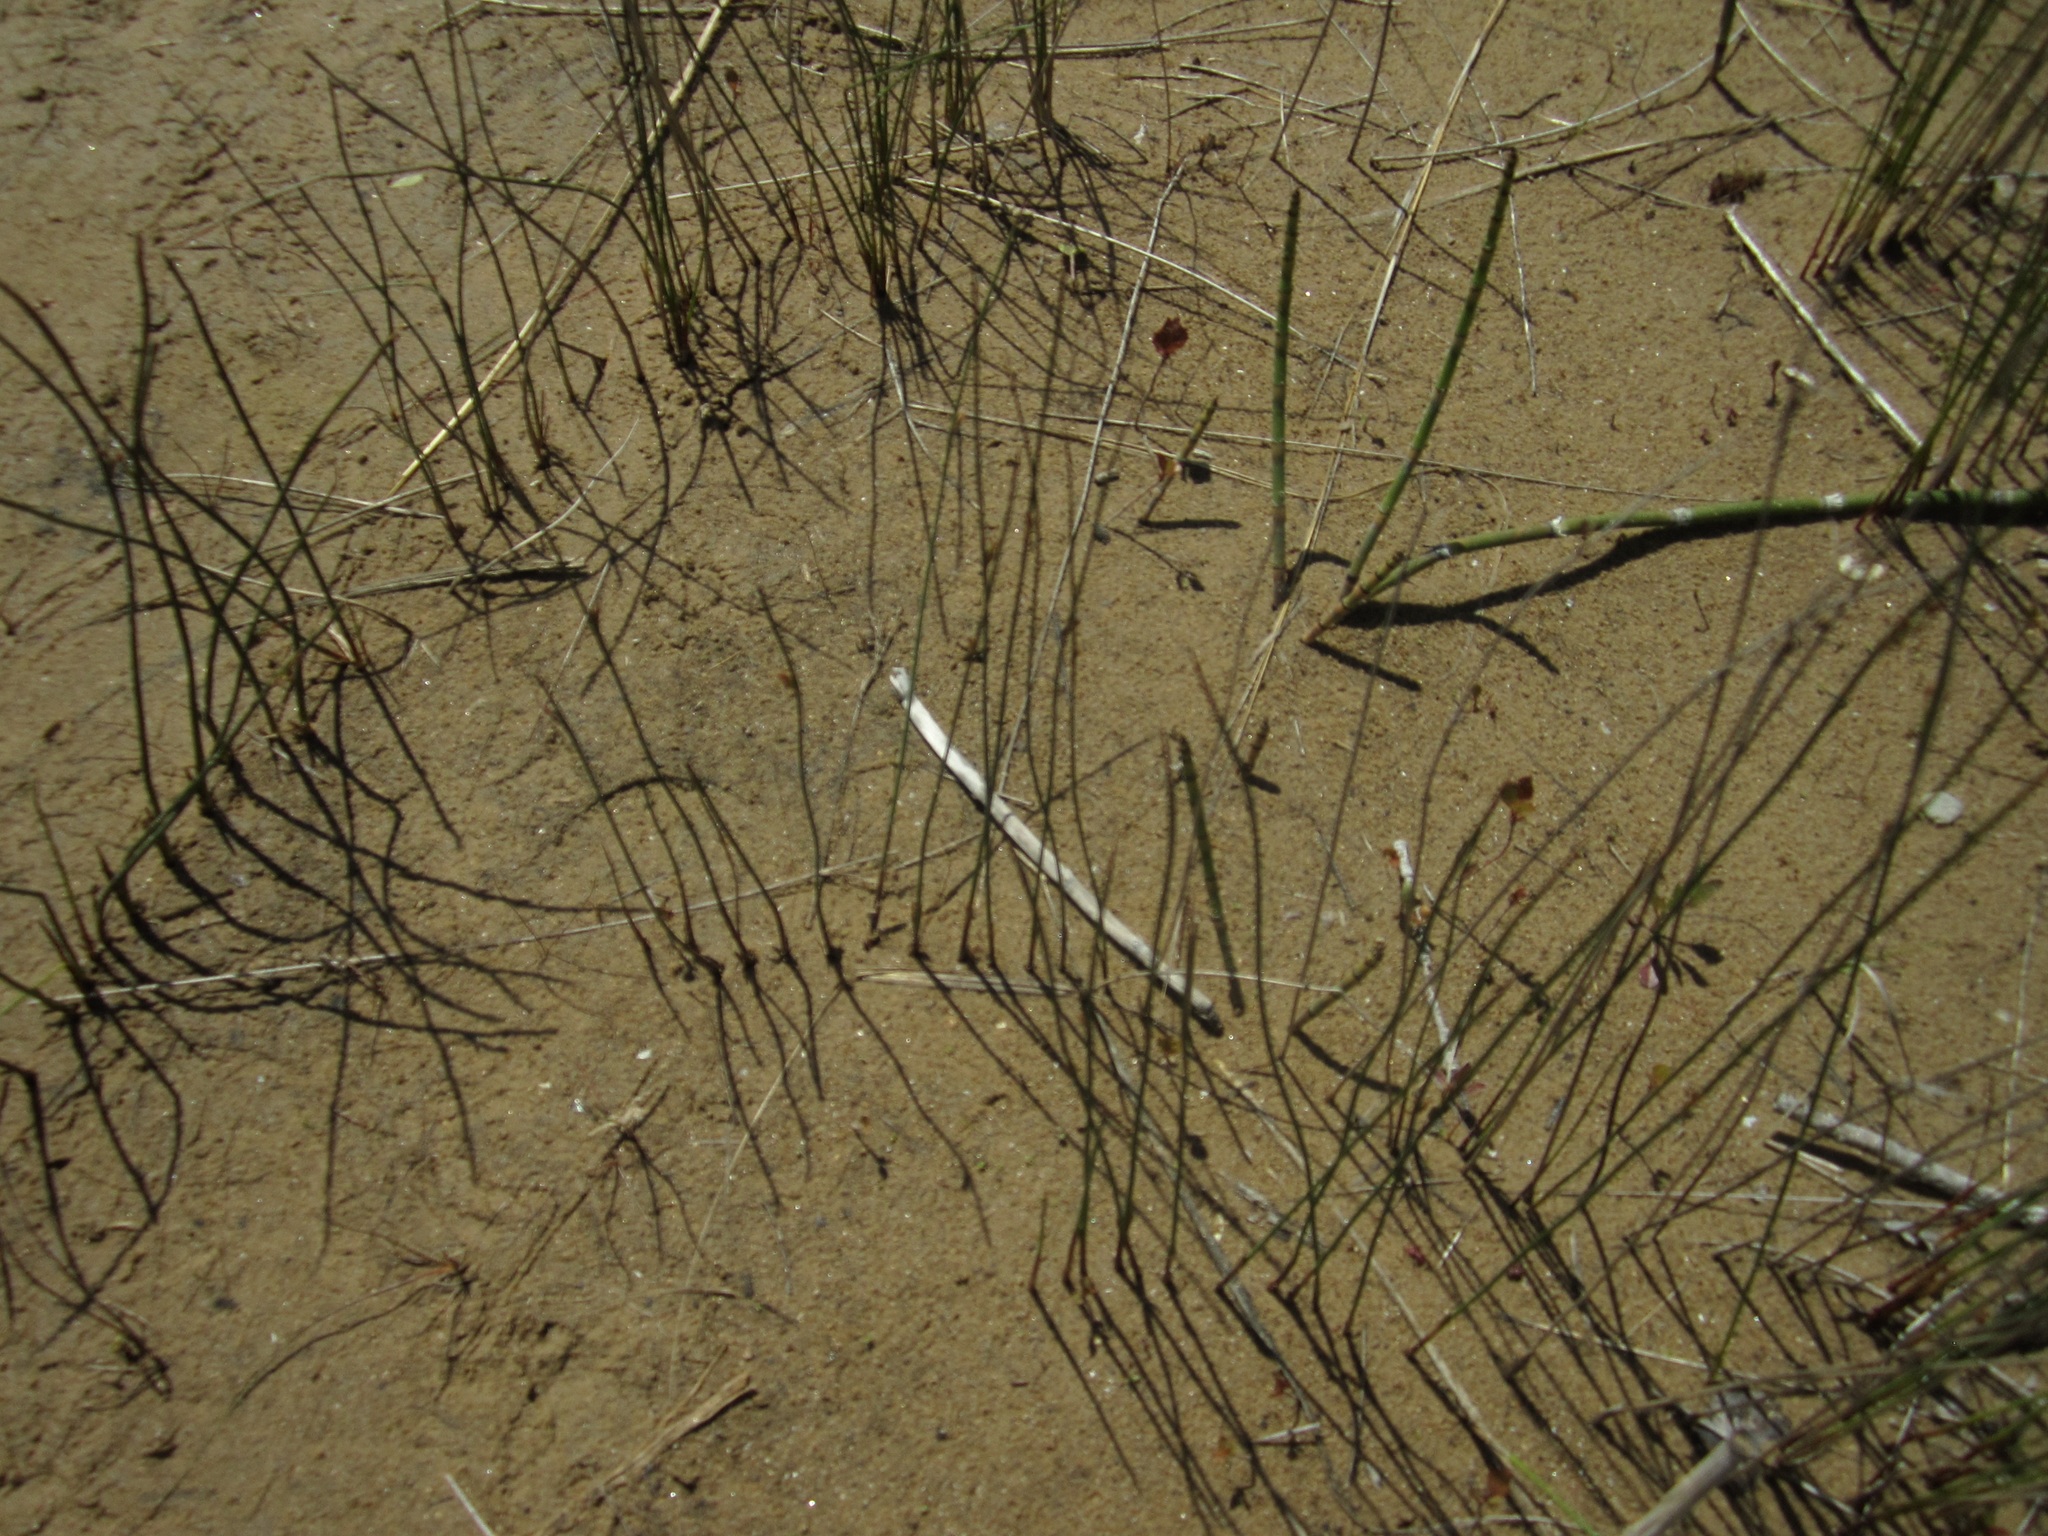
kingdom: Plantae
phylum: Tracheophyta
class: Liliopsida
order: Poales
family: Juncaceae
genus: Juncus
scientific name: Juncus balticus
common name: Baltic rush
